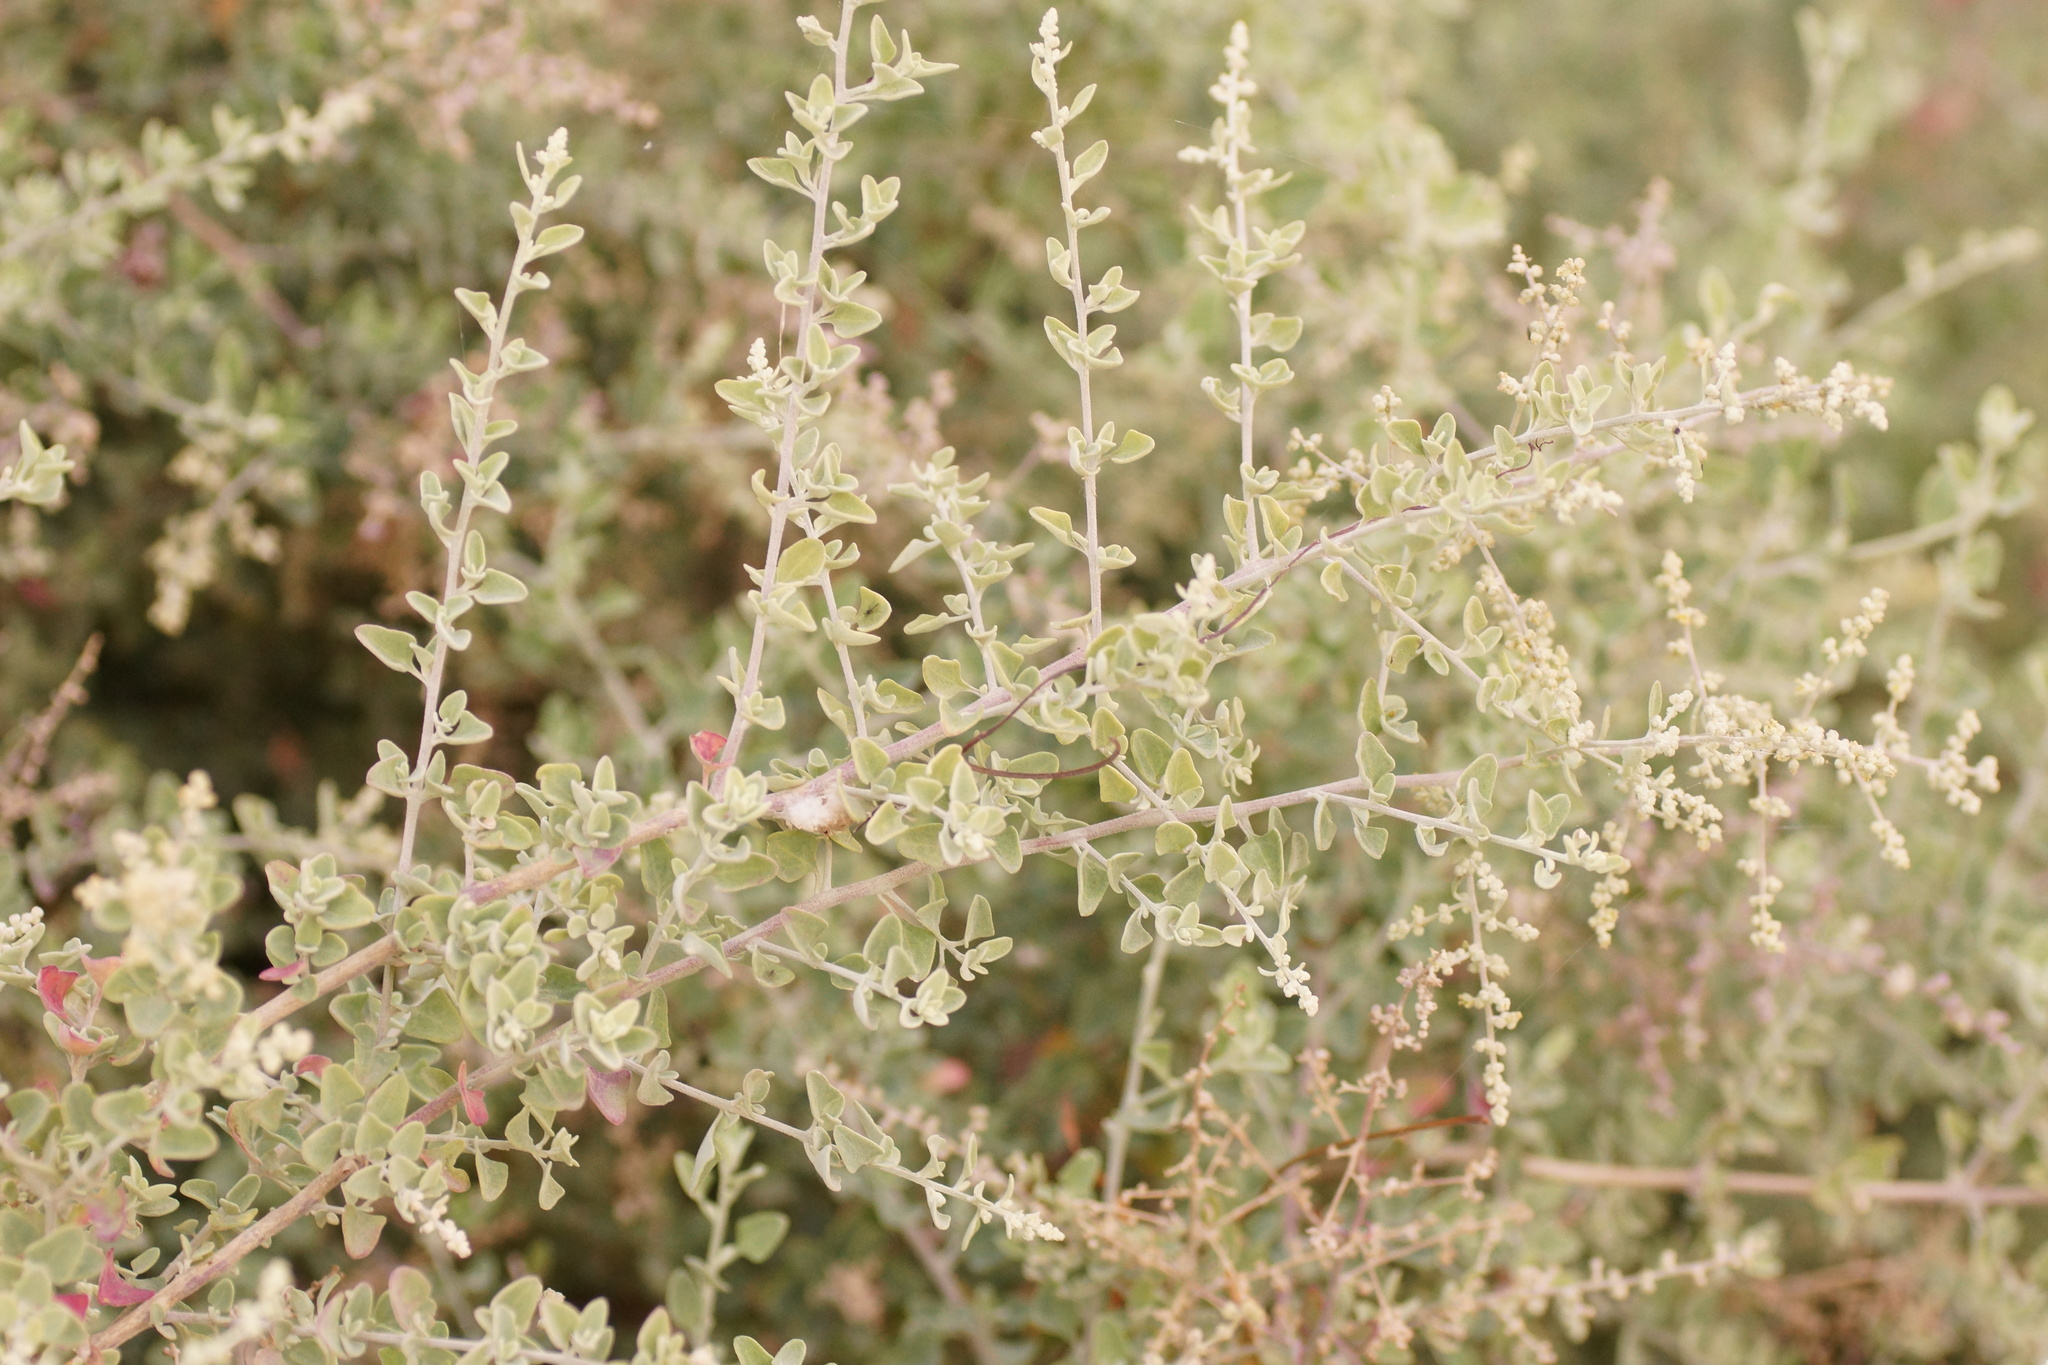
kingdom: Plantae
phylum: Tracheophyta
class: Magnoliopsida
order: Caryophyllales
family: Amaranthaceae
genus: Chenopodium
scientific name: Chenopodium parabolicum
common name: Old-man-saltbush
